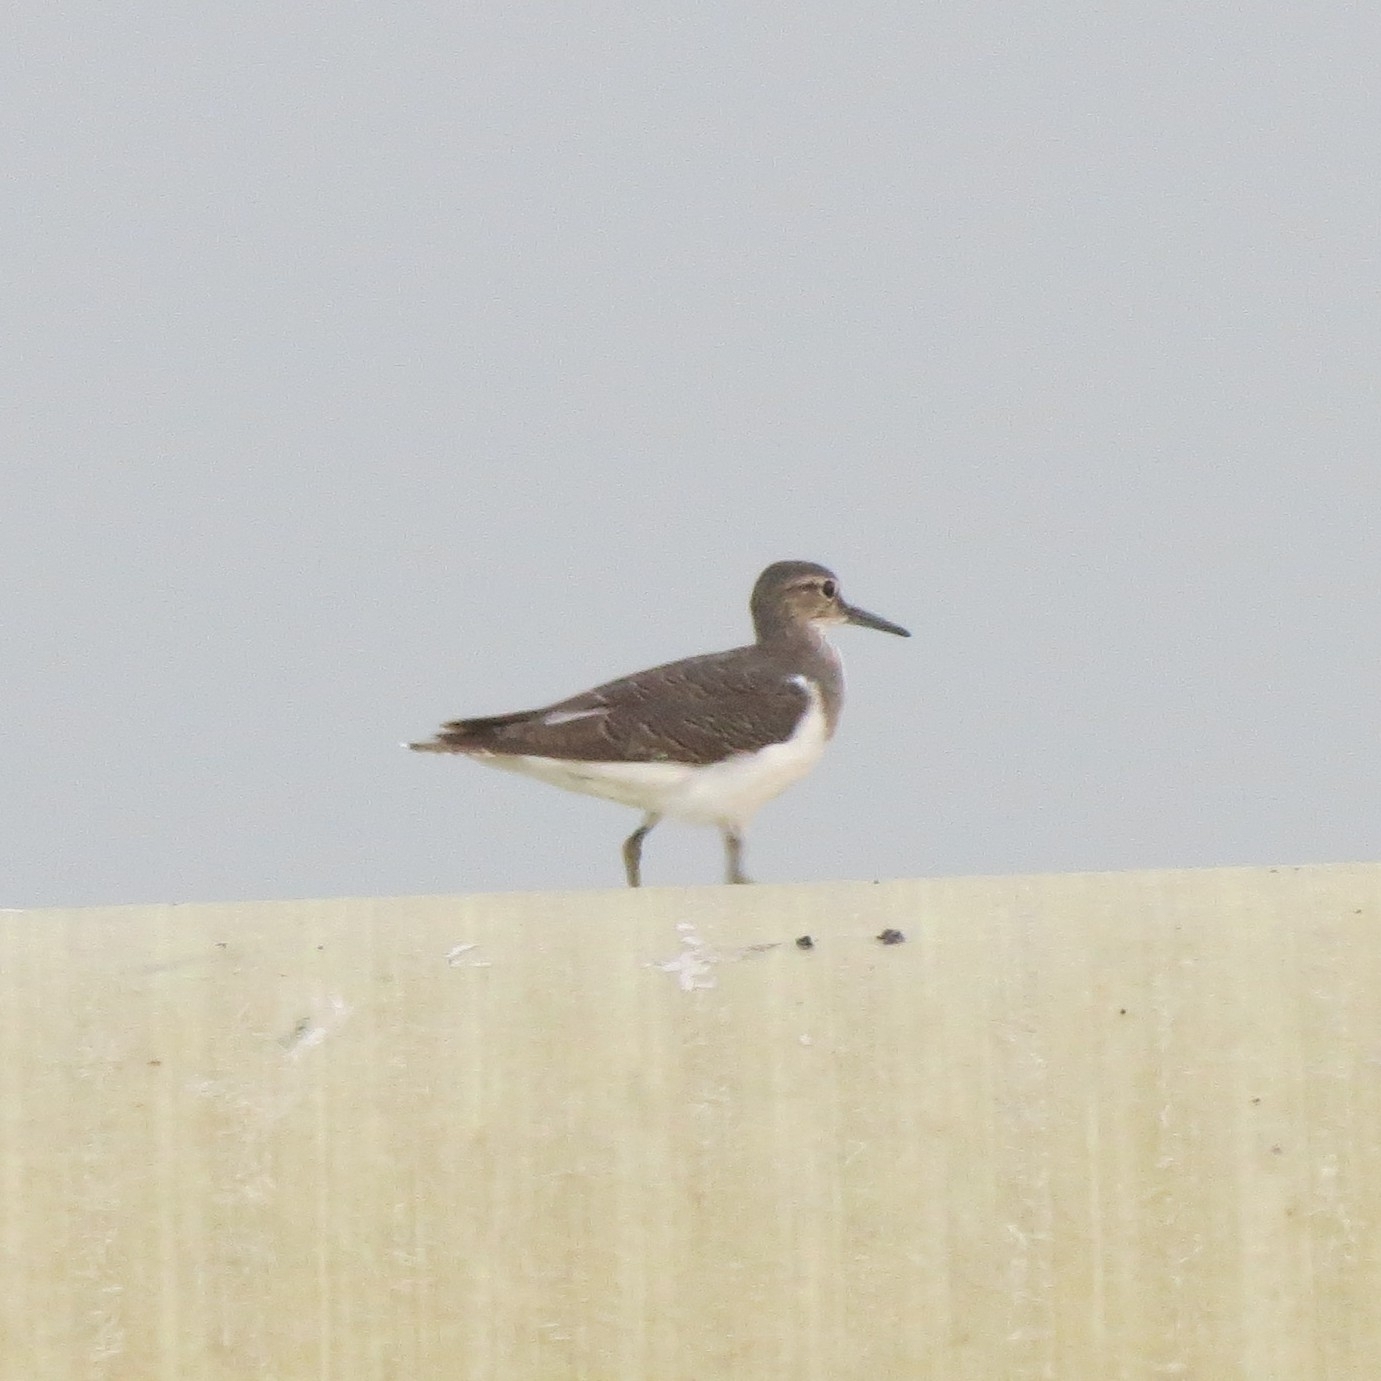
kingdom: Animalia
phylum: Chordata
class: Aves
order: Charadriiformes
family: Scolopacidae
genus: Actitis
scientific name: Actitis hypoleucos
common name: Common sandpiper
